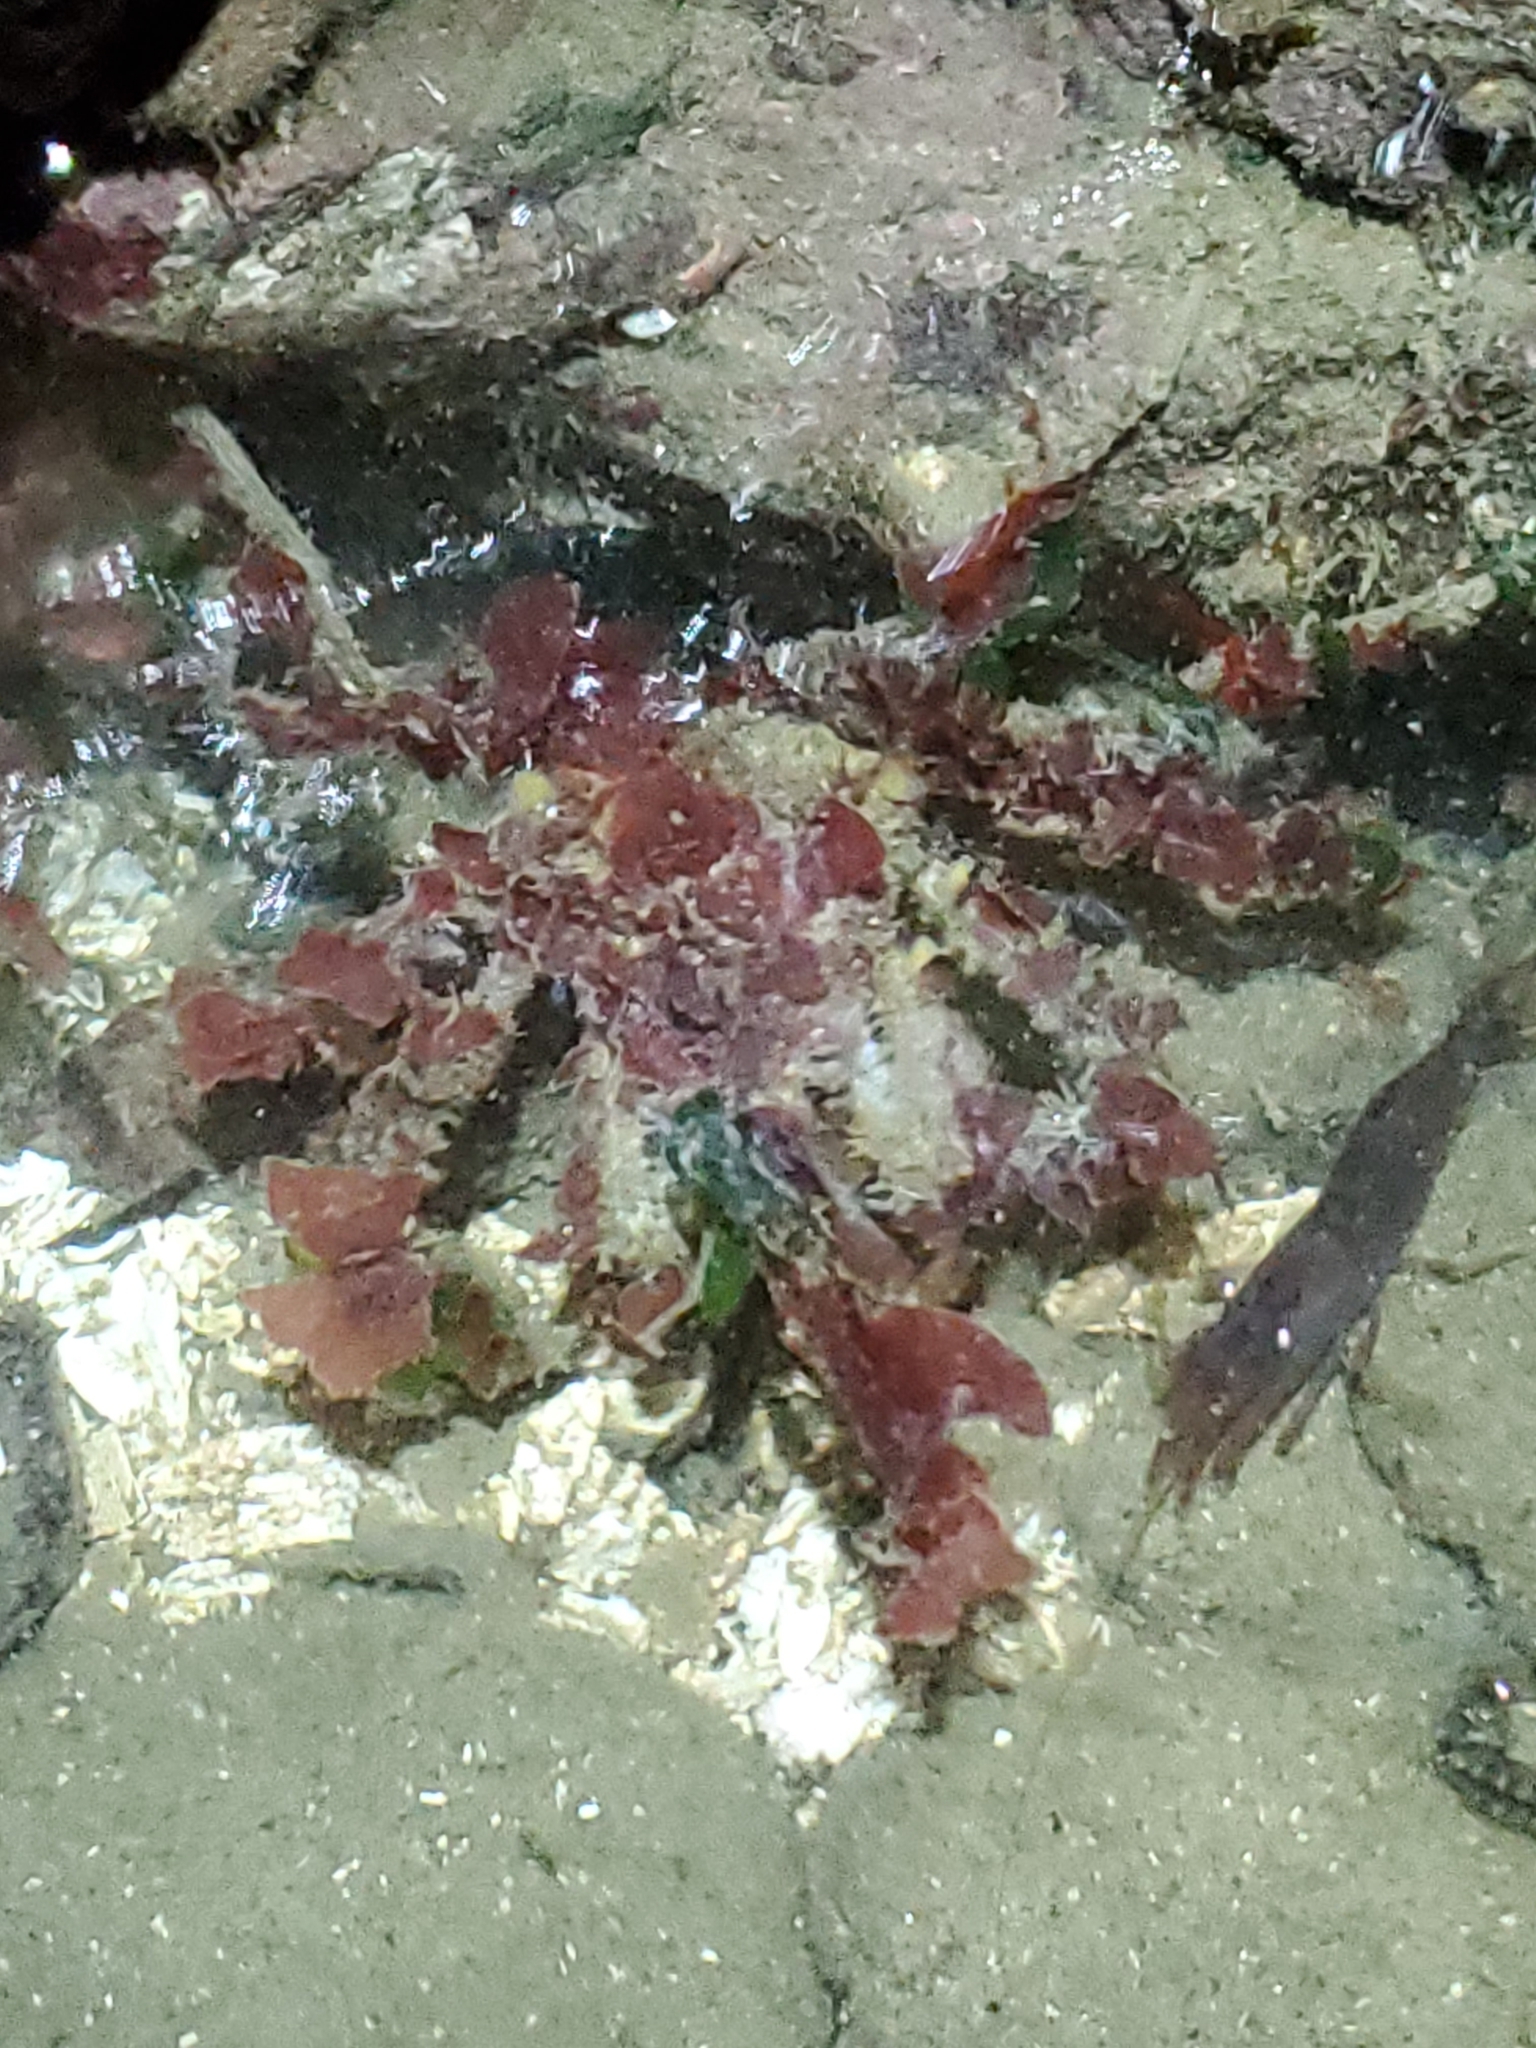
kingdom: Animalia
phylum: Arthropoda
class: Malacostraca
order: Decapoda
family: Oregoniidae
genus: Oregonia
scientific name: Oregonia gracilis
